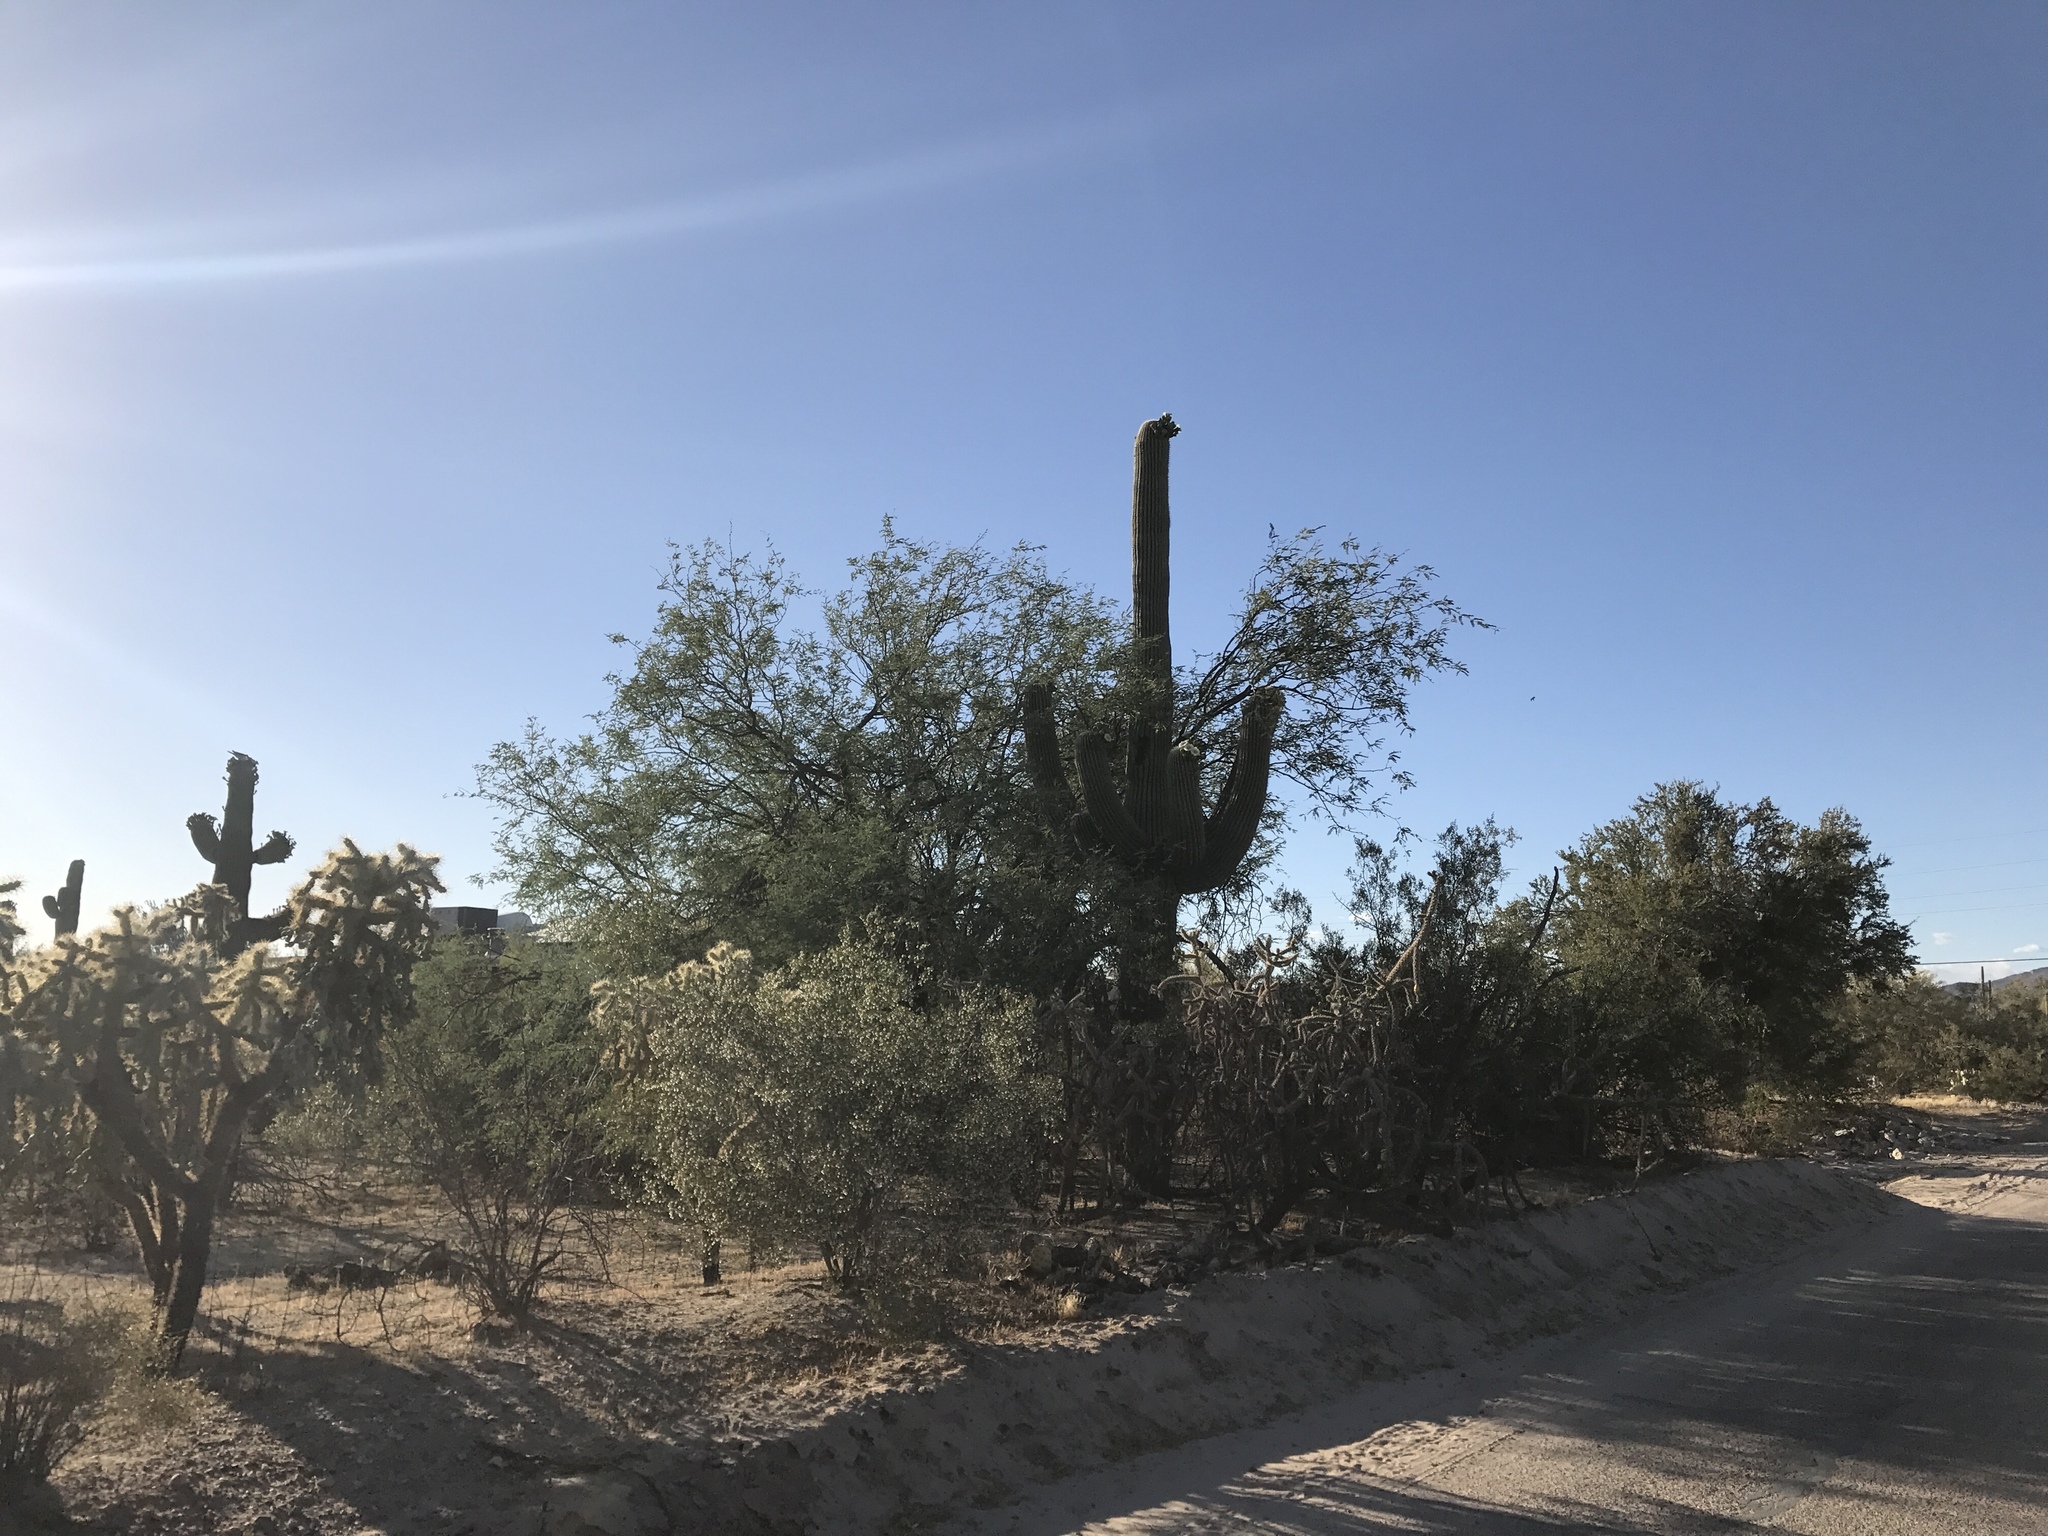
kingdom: Plantae
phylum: Tracheophyta
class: Magnoliopsida
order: Caryophyllales
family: Cactaceae
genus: Carnegiea
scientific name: Carnegiea gigantea
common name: Saguaro
